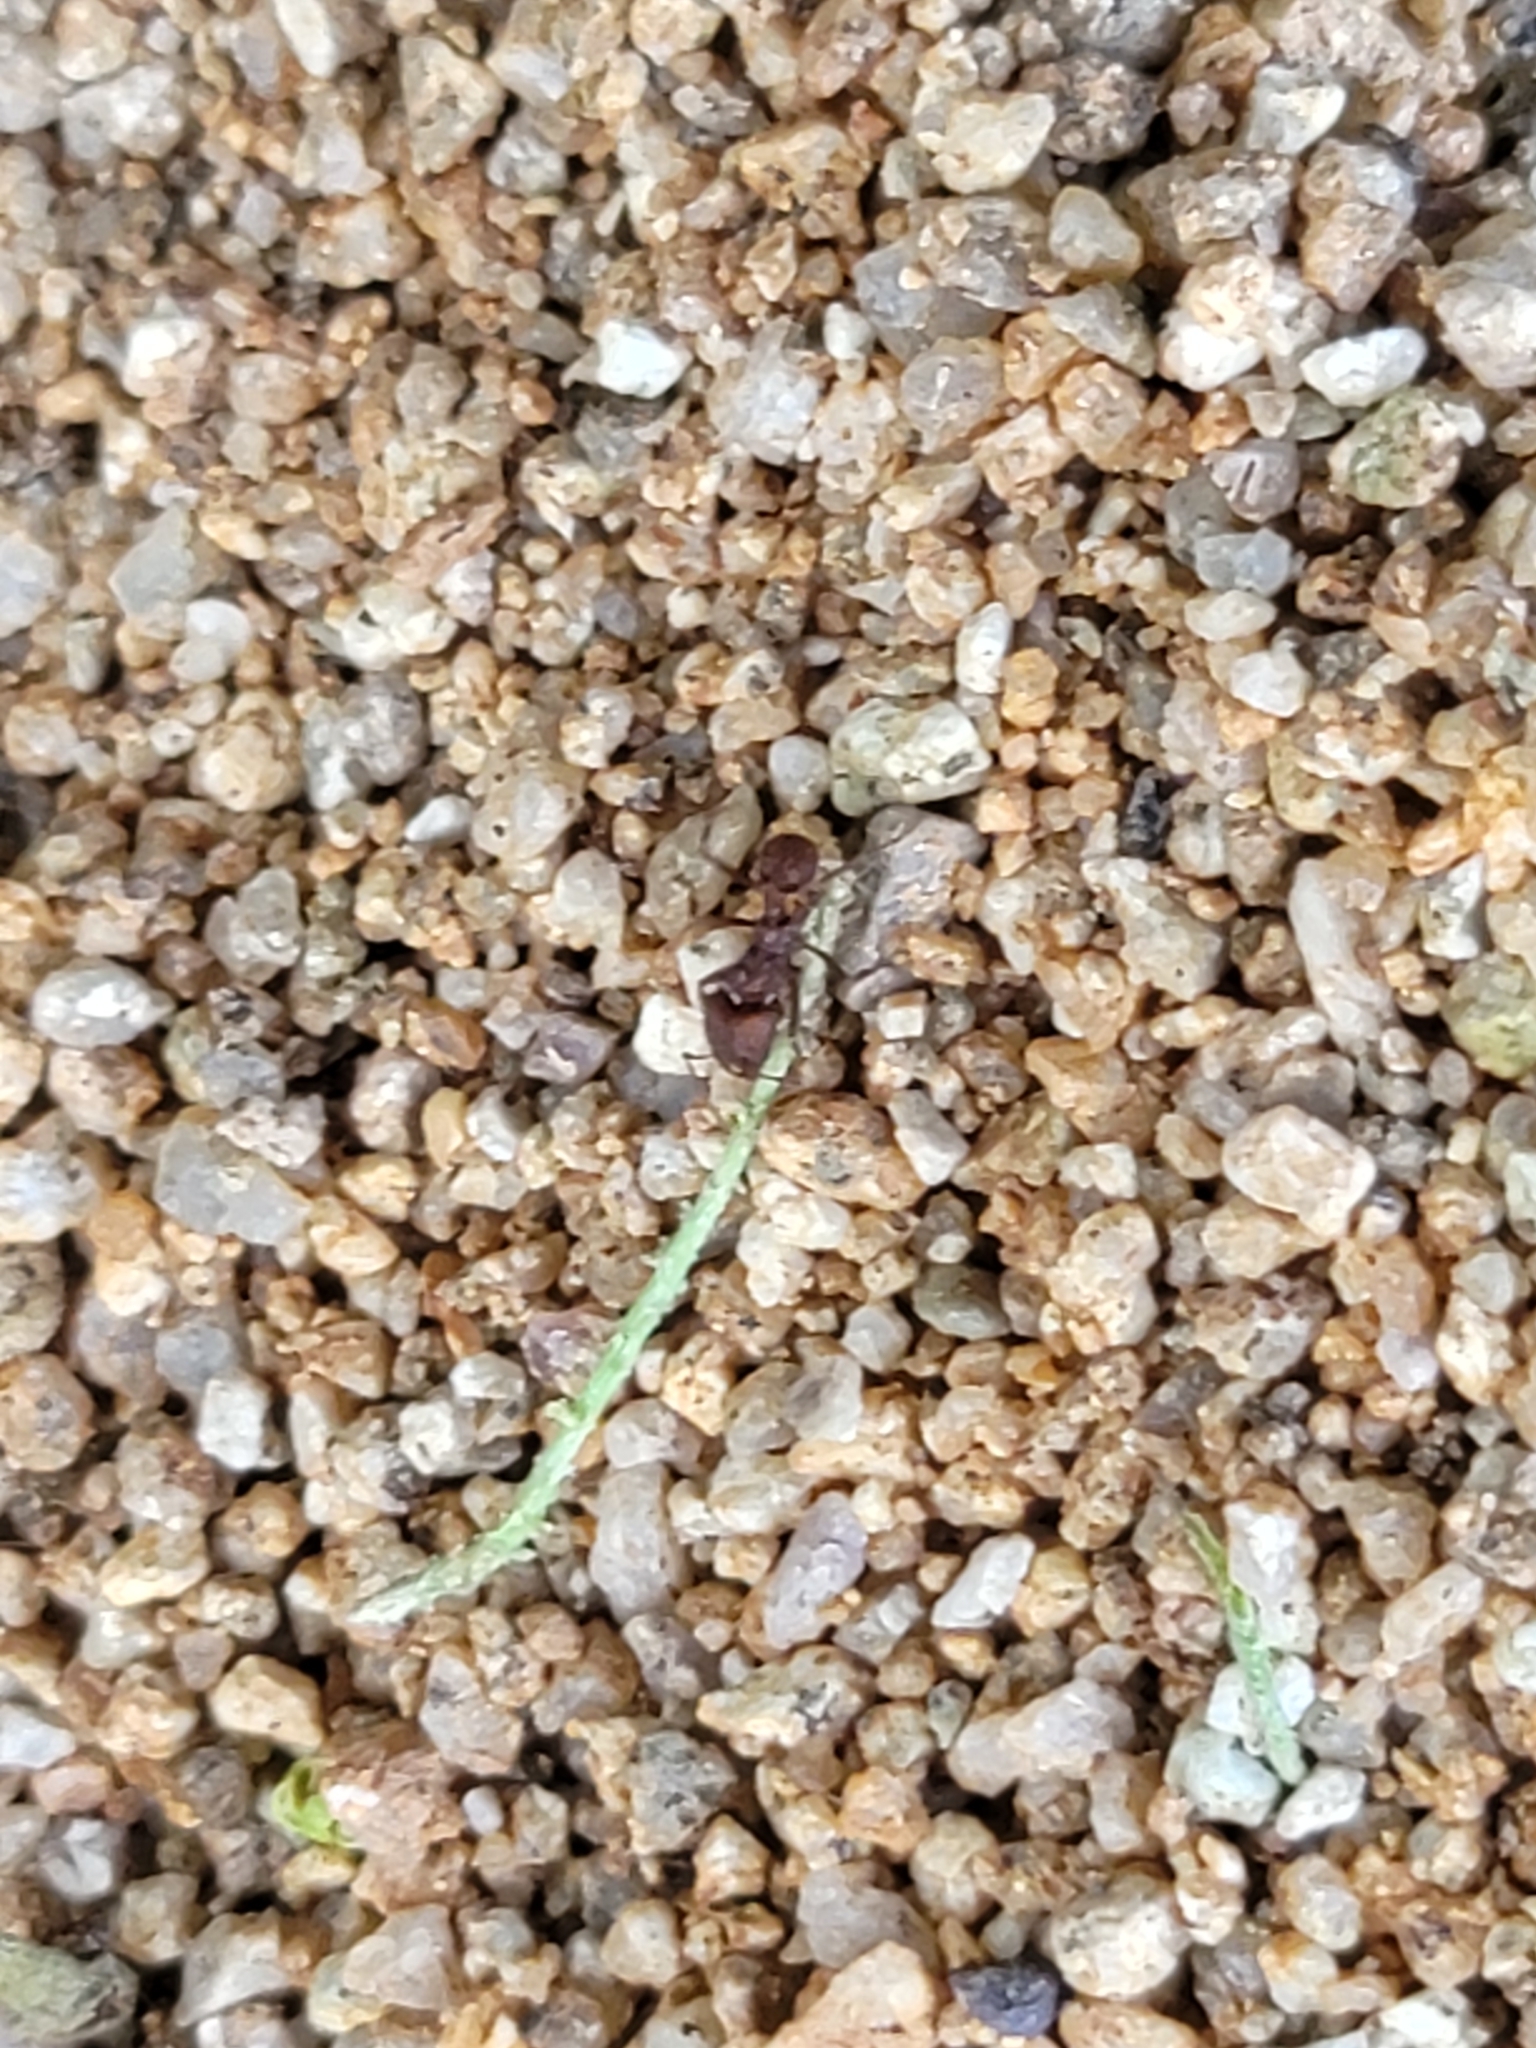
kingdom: Animalia
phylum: Arthropoda
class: Insecta
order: Hymenoptera
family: Formicidae
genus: Acromyrmex
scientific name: Acromyrmex versicolor
